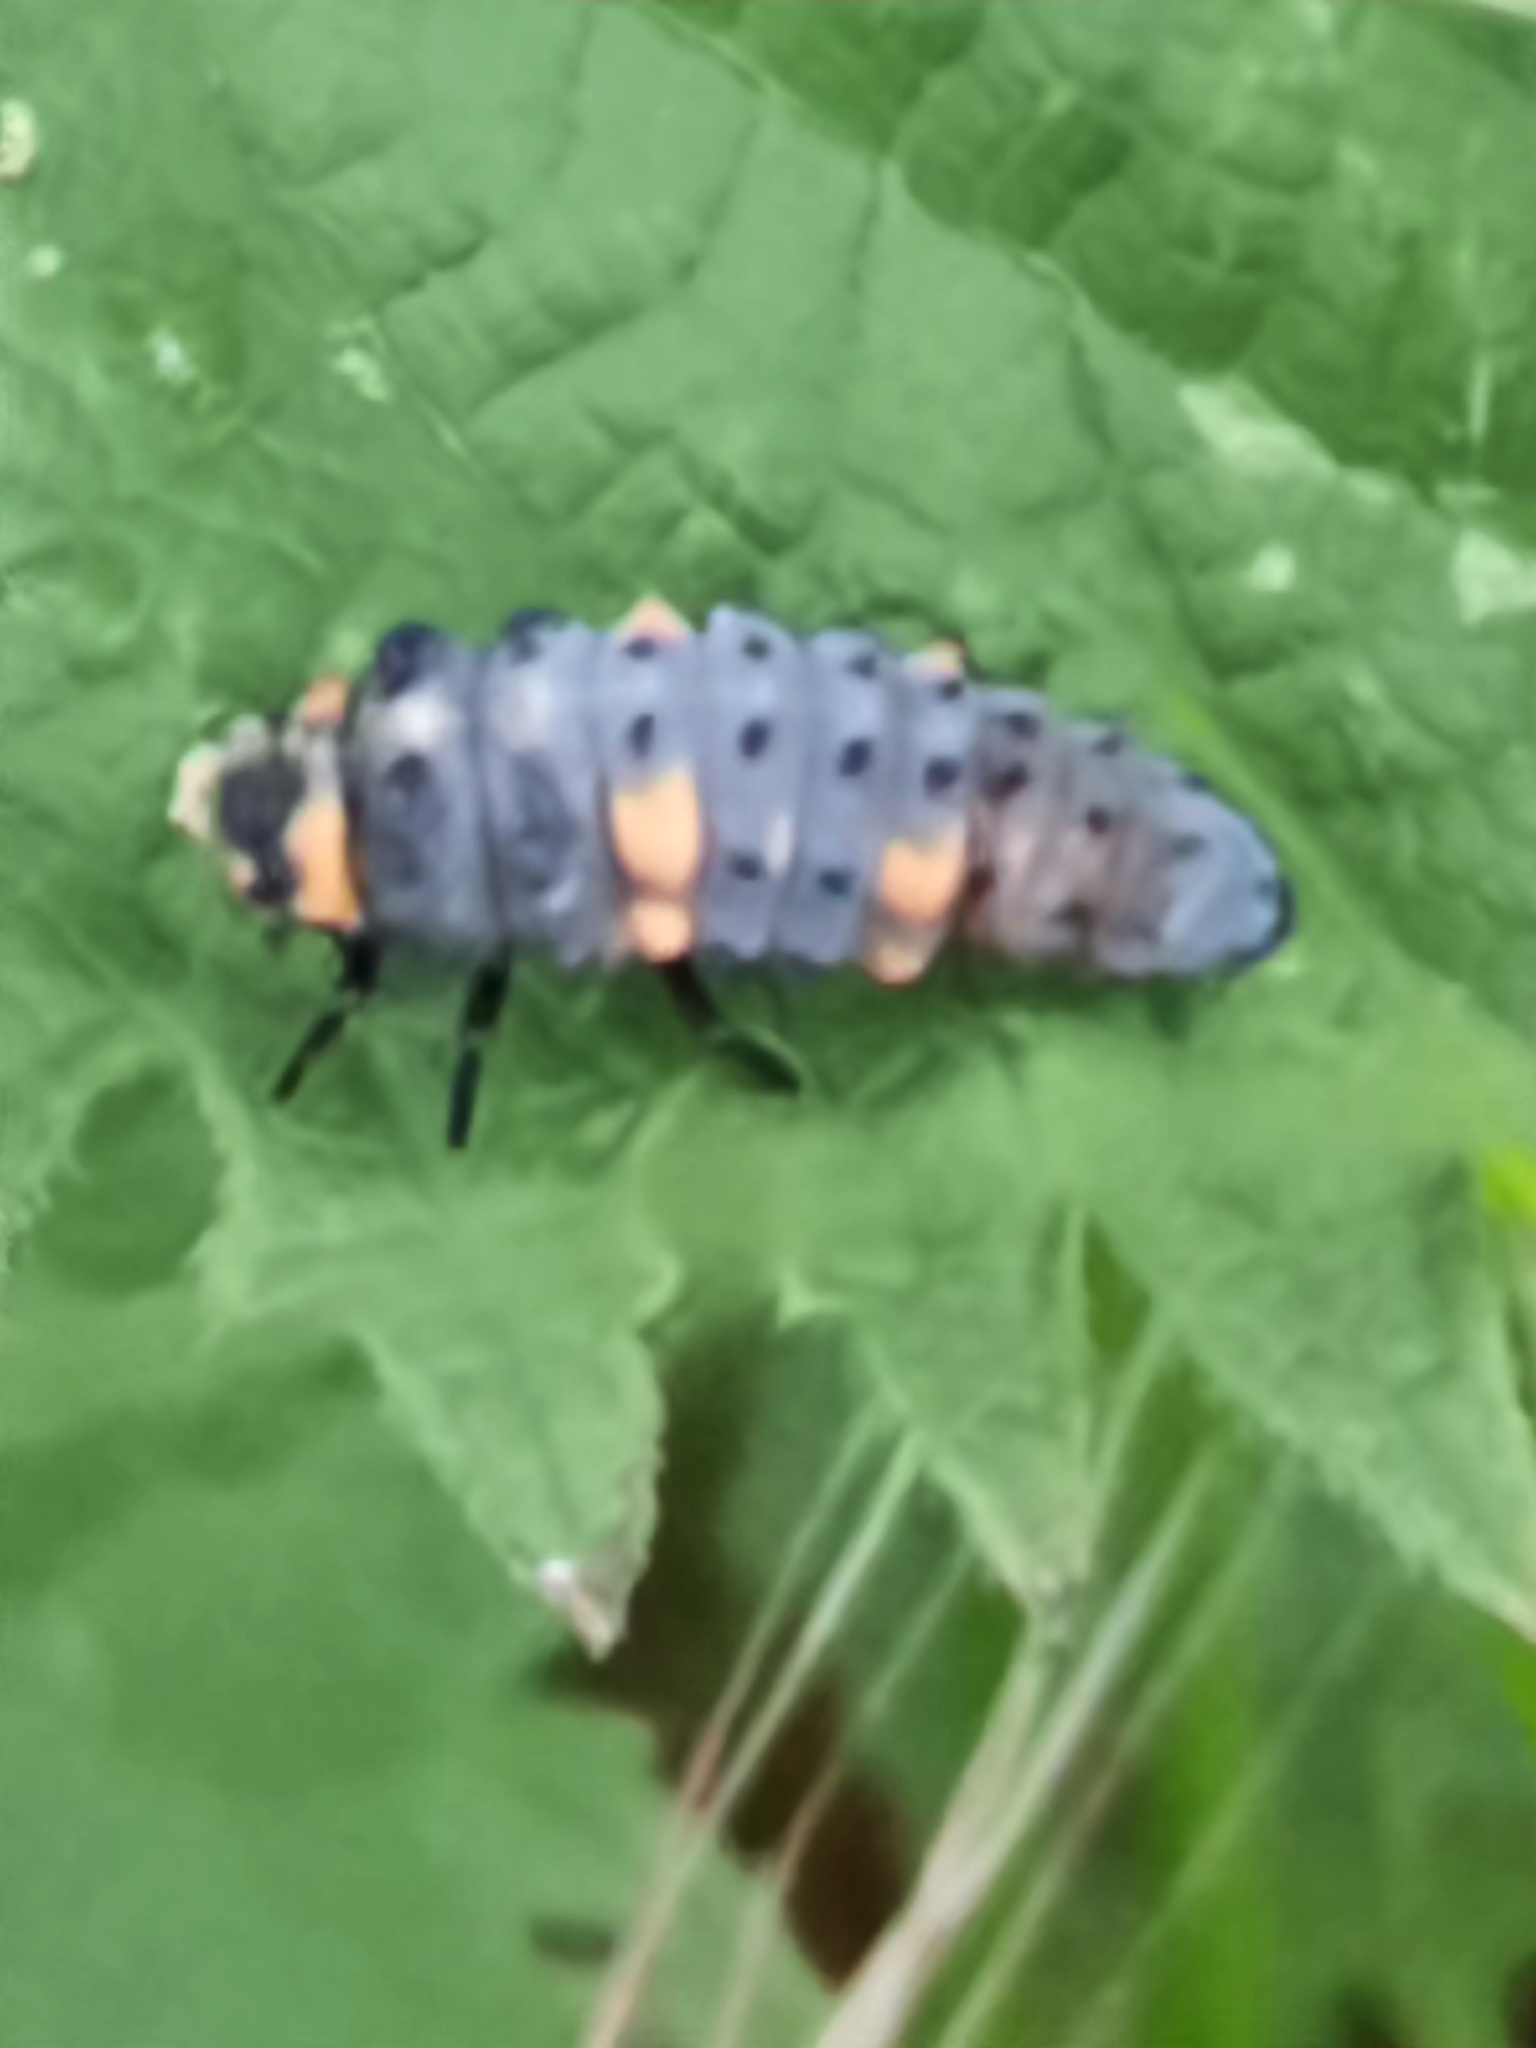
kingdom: Animalia
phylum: Arthropoda
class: Insecta
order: Coleoptera
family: Coccinellidae
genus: Coccinella
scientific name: Coccinella septempunctata
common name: Sevenspotted lady beetle
